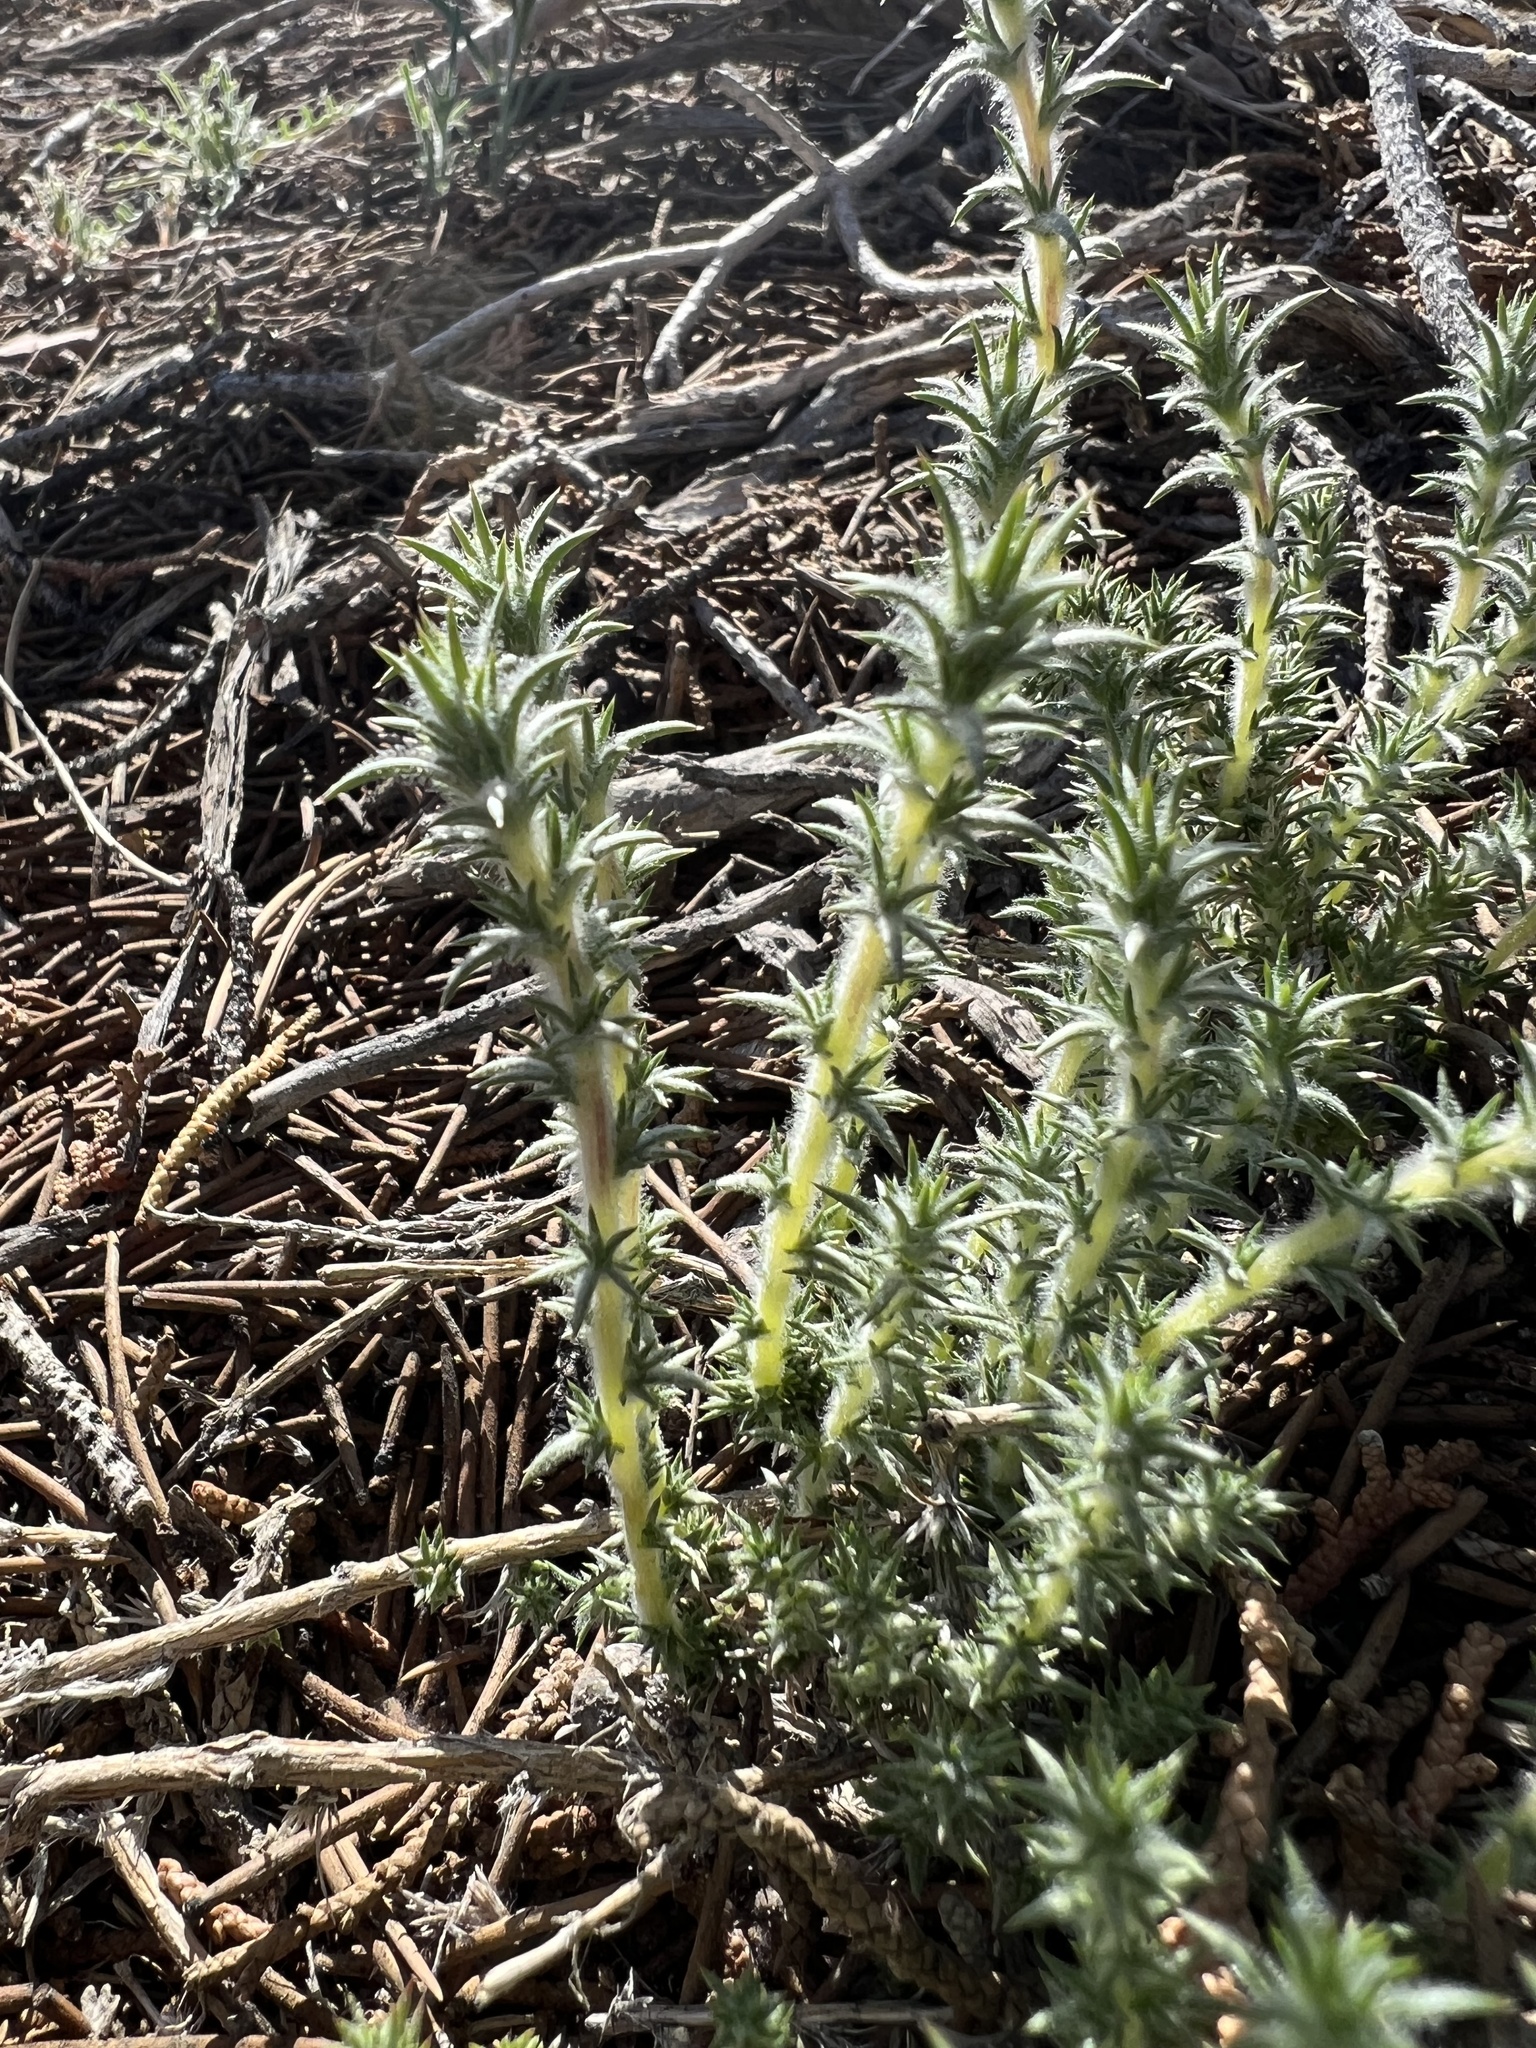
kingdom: Plantae
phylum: Tracheophyta
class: Magnoliopsida
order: Ericales
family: Polemoniaceae
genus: Linanthus
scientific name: Linanthus pungens
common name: Granite prickly phlox
